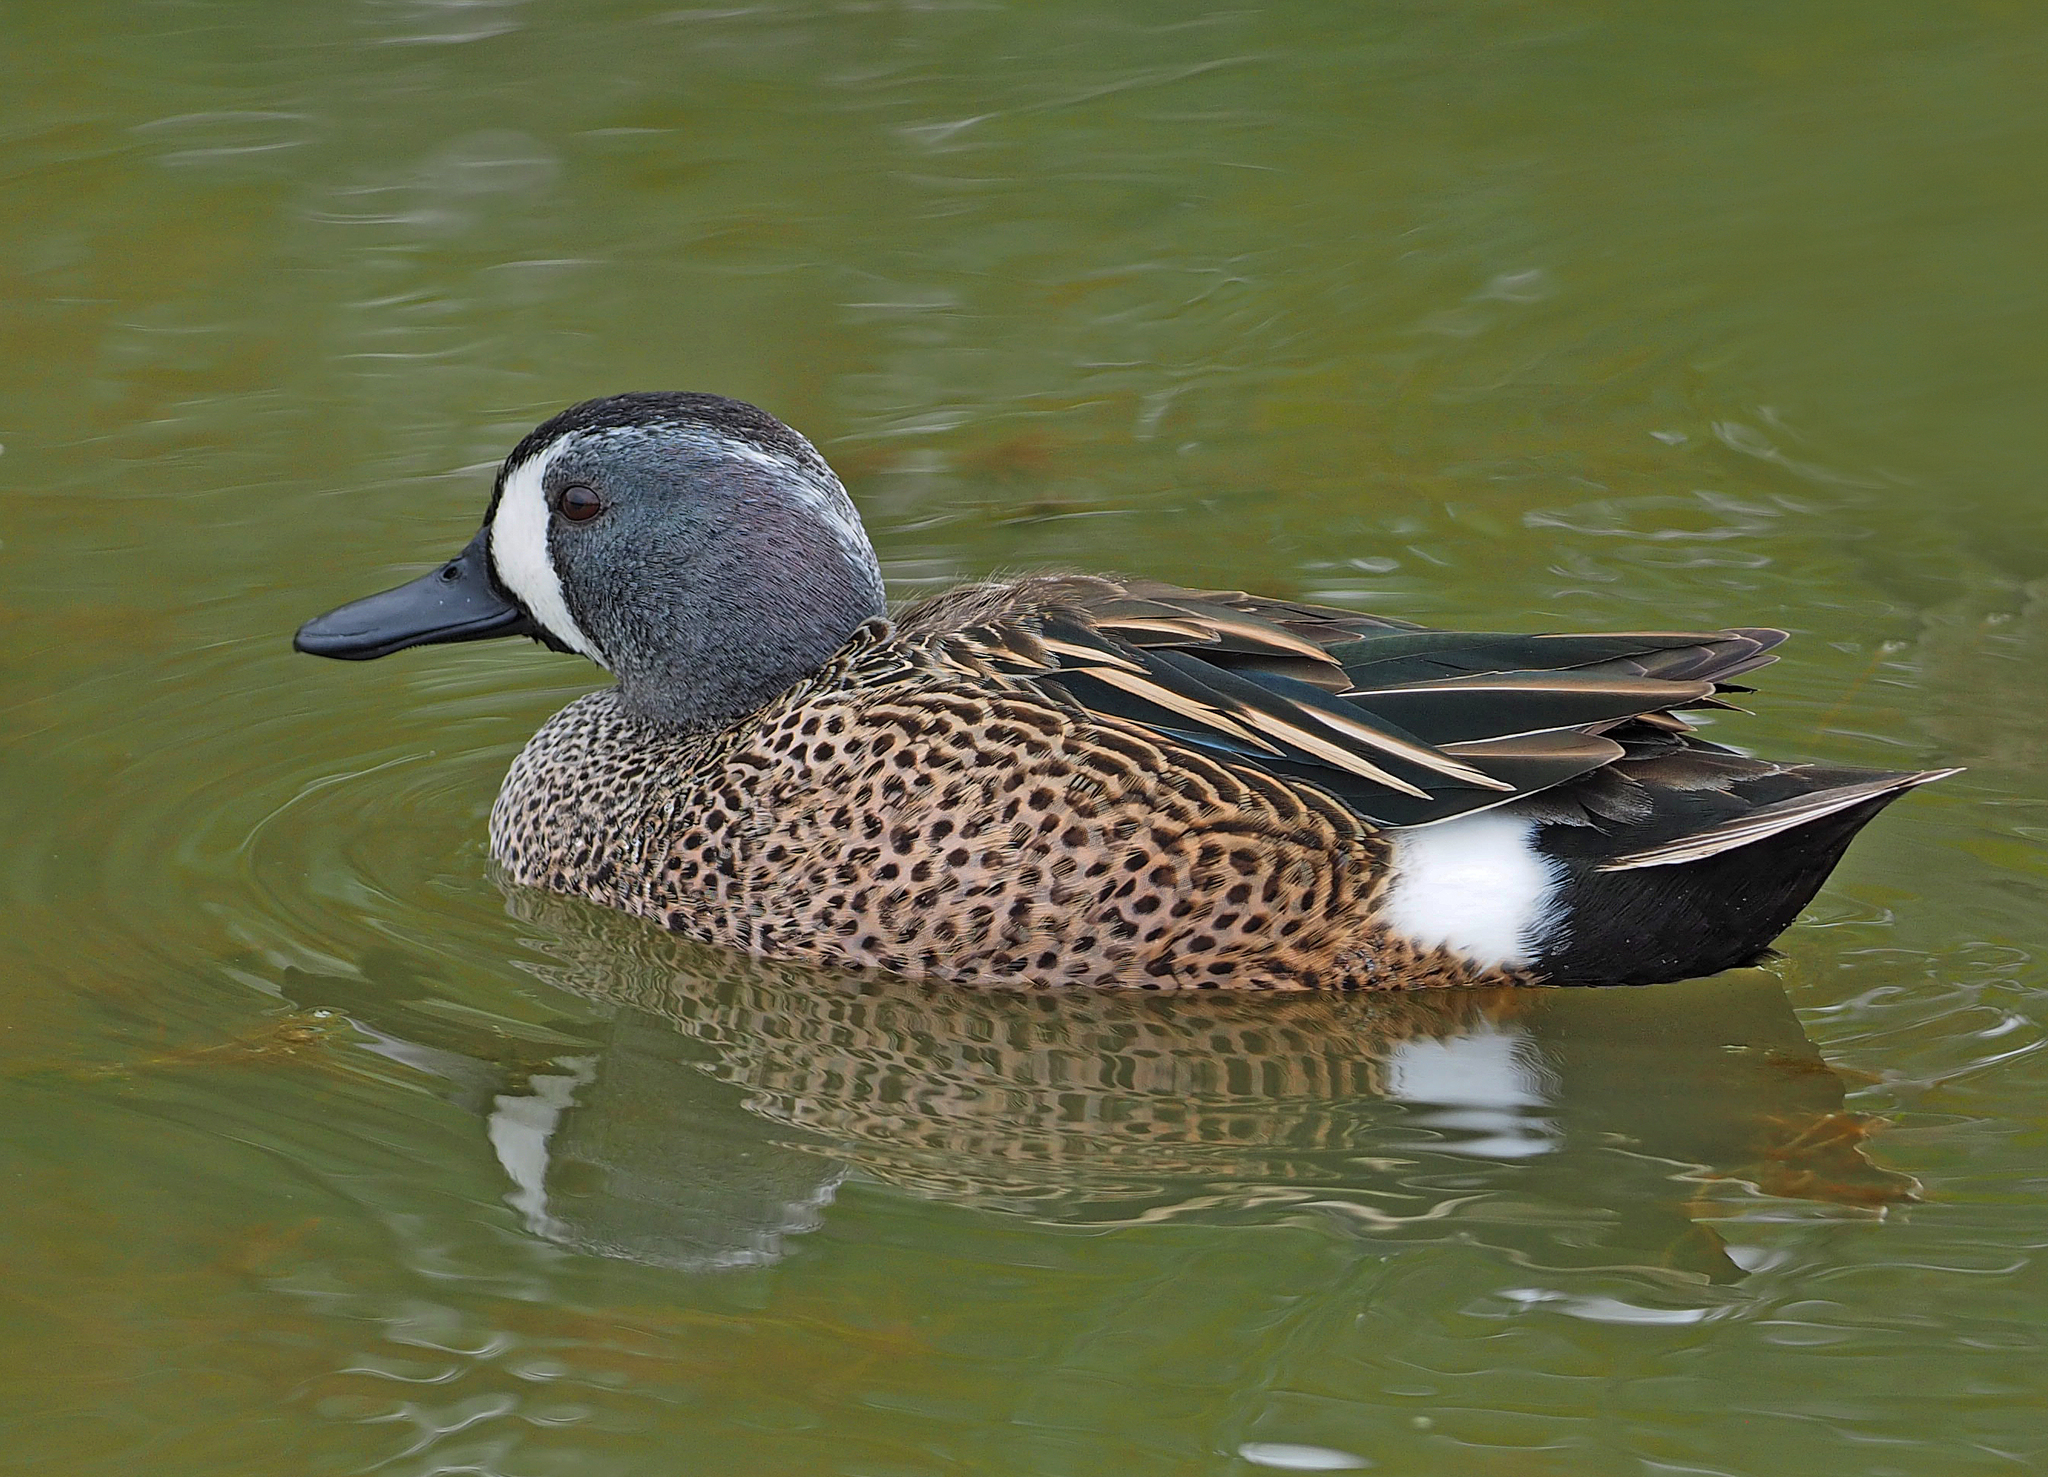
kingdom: Animalia
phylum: Chordata
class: Aves
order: Anseriformes
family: Anatidae
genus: Spatula
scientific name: Spatula discors
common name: Blue-winged teal
